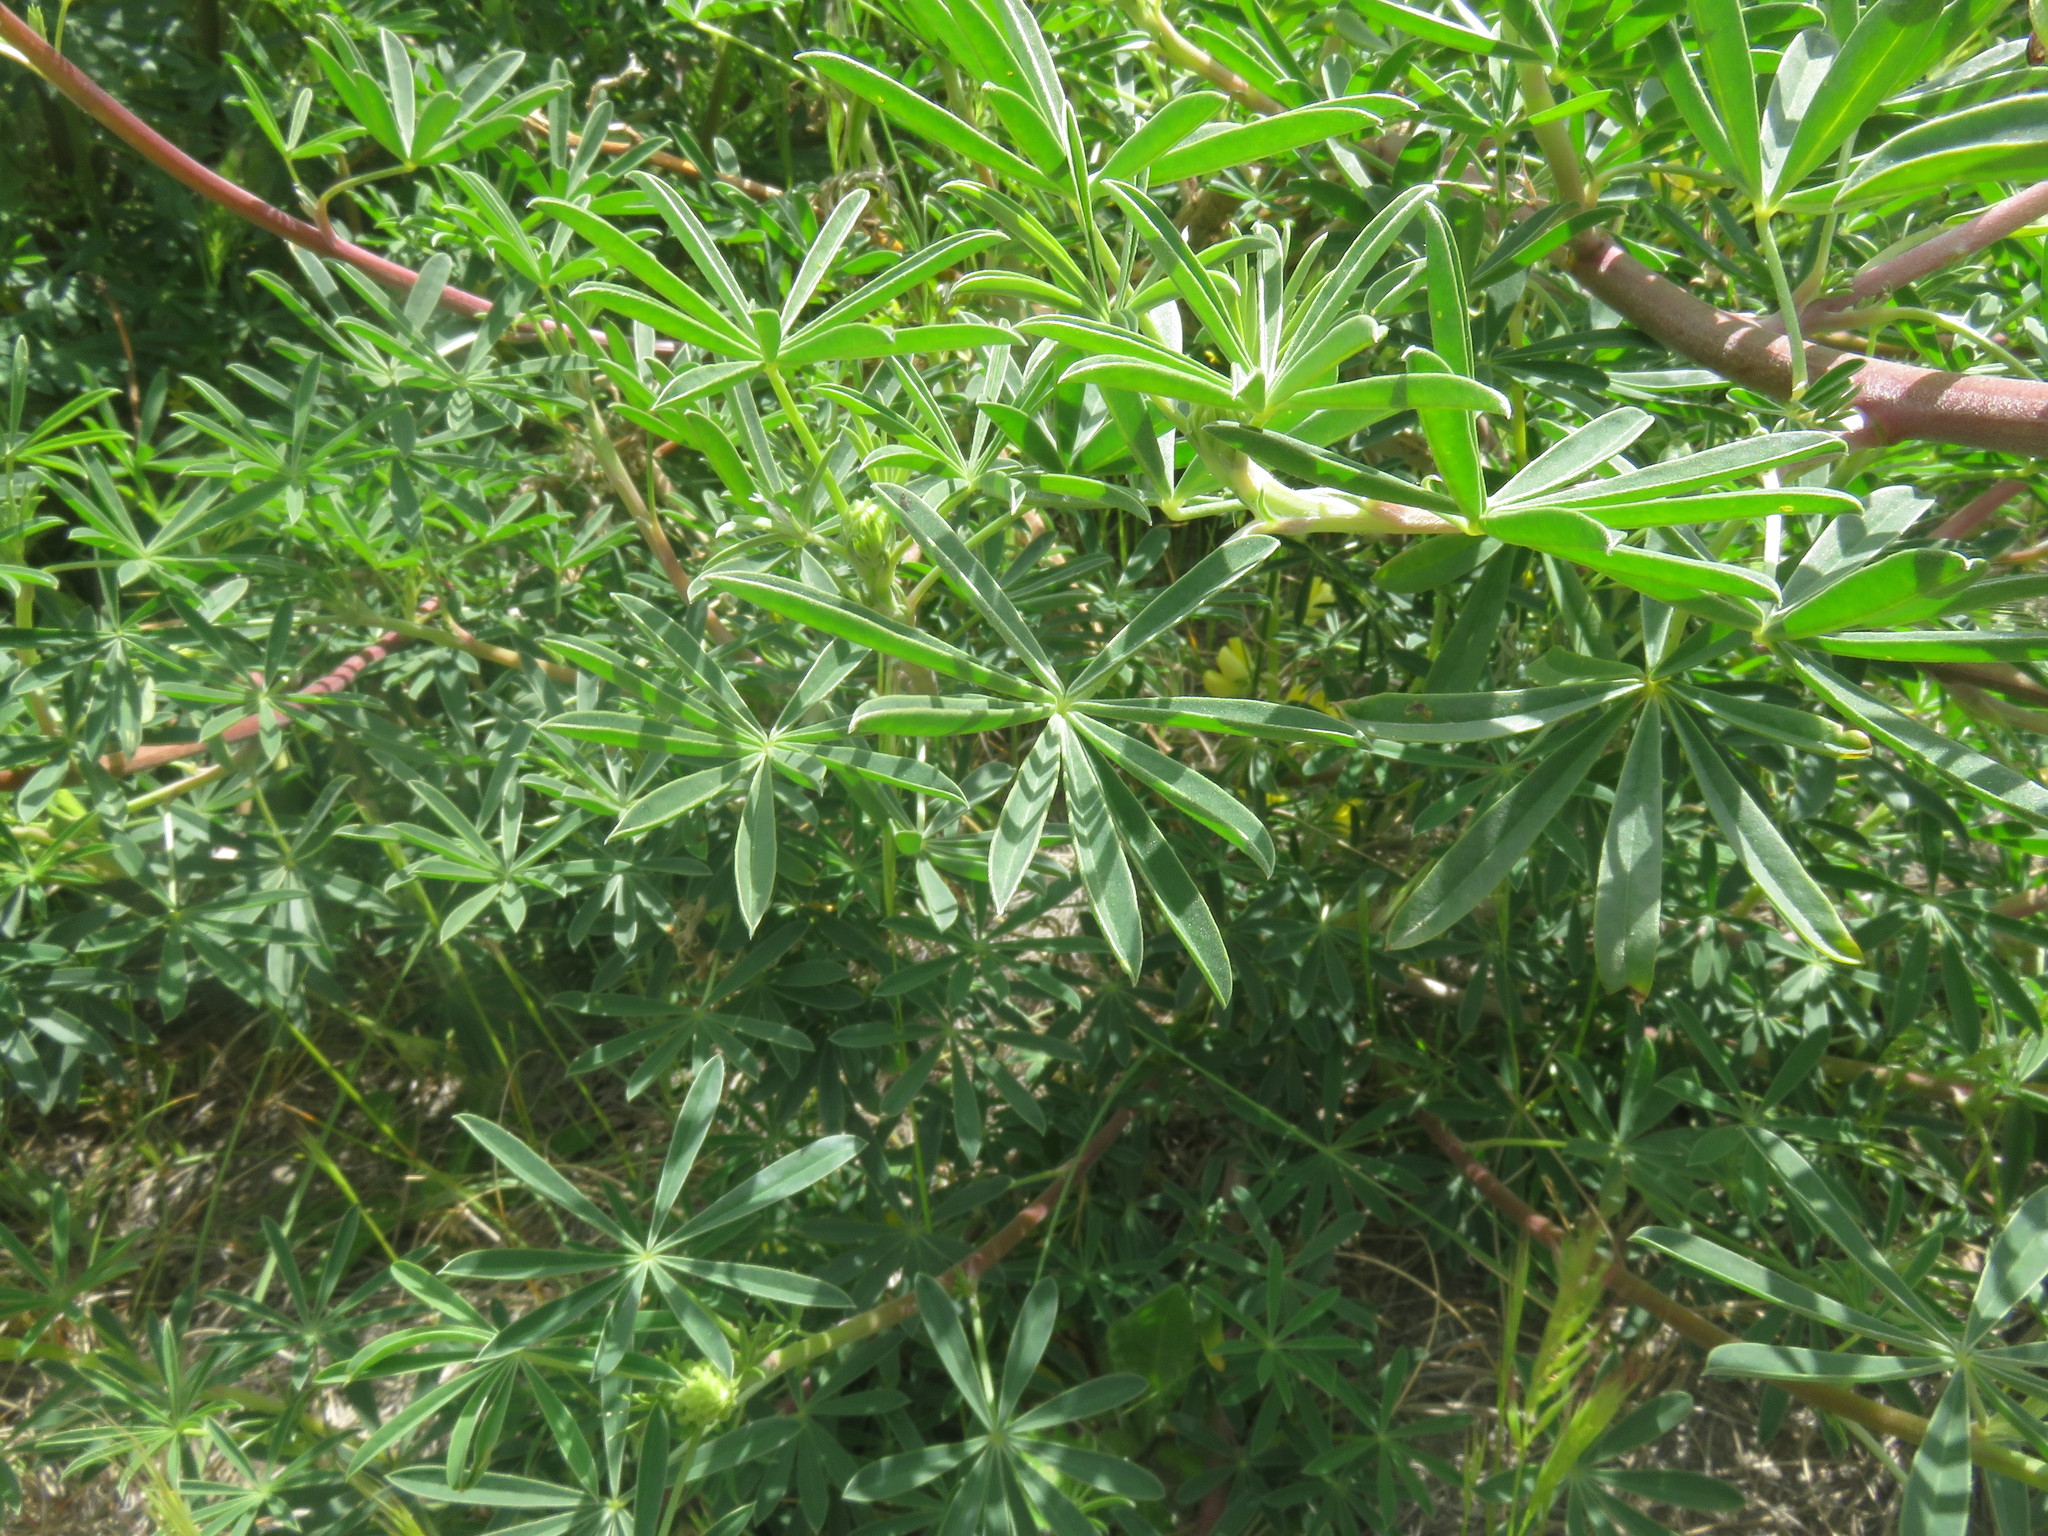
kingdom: Plantae
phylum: Tracheophyta
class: Magnoliopsida
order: Fabales
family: Fabaceae
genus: Lupinus
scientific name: Lupinus arboreus
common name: Yellow bush lupine
